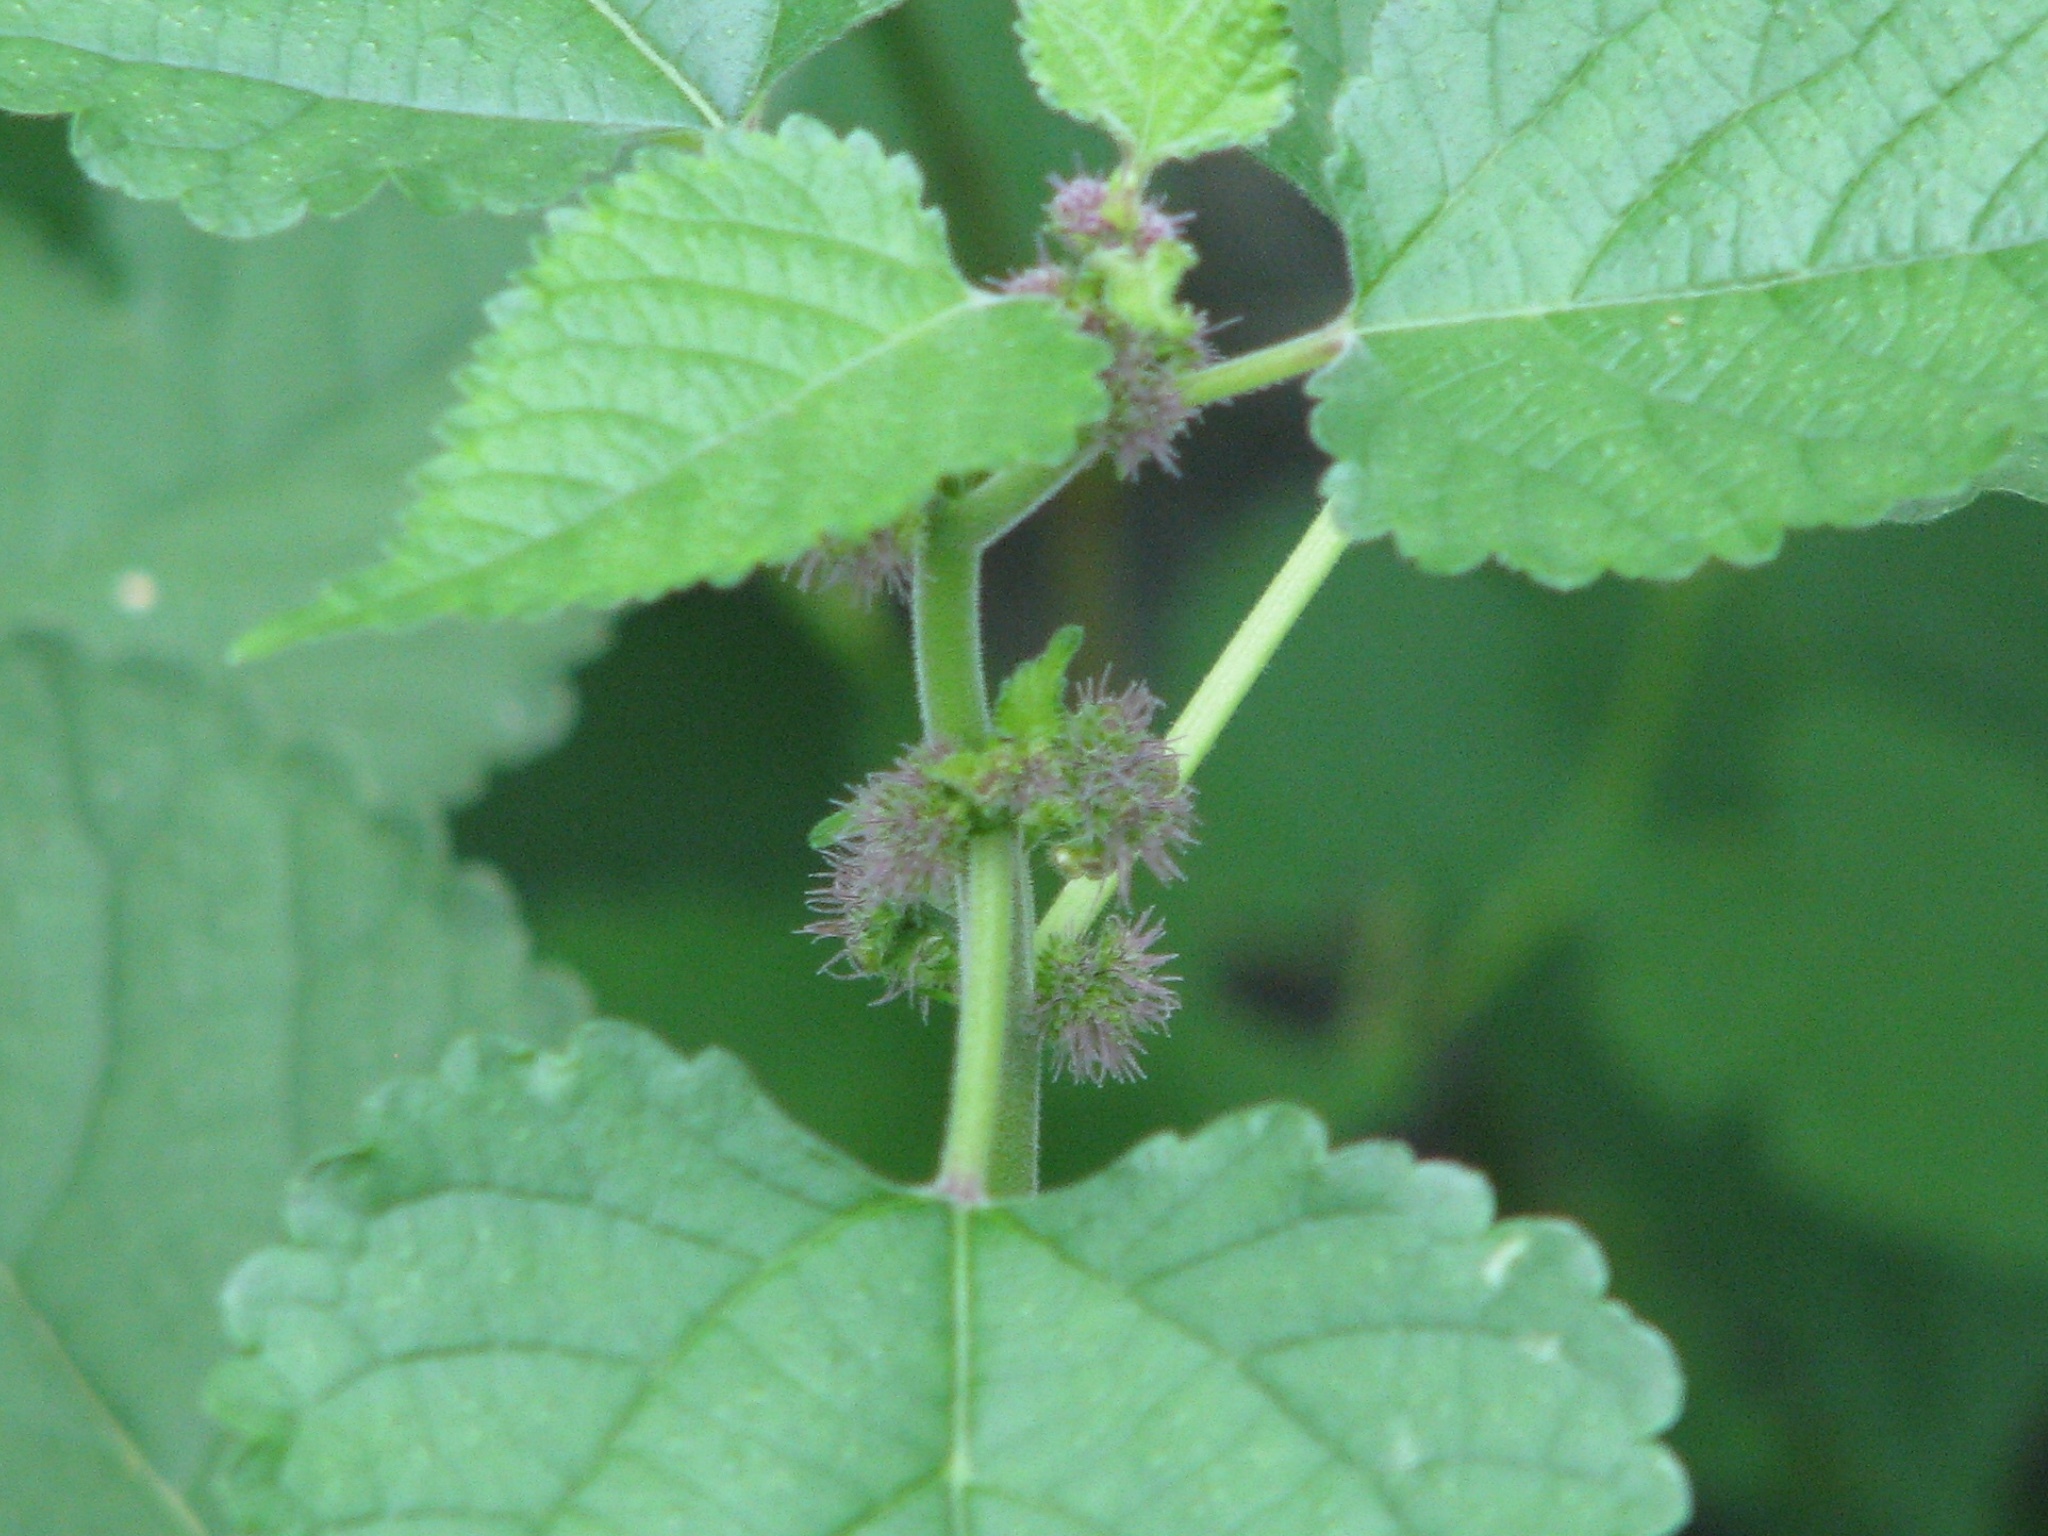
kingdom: Plantae
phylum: Tracheophyta
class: Magnoliopsida
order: Rosales
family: Moraceae
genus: Fatoua
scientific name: Fatoua villosa
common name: Hairy crabweed
